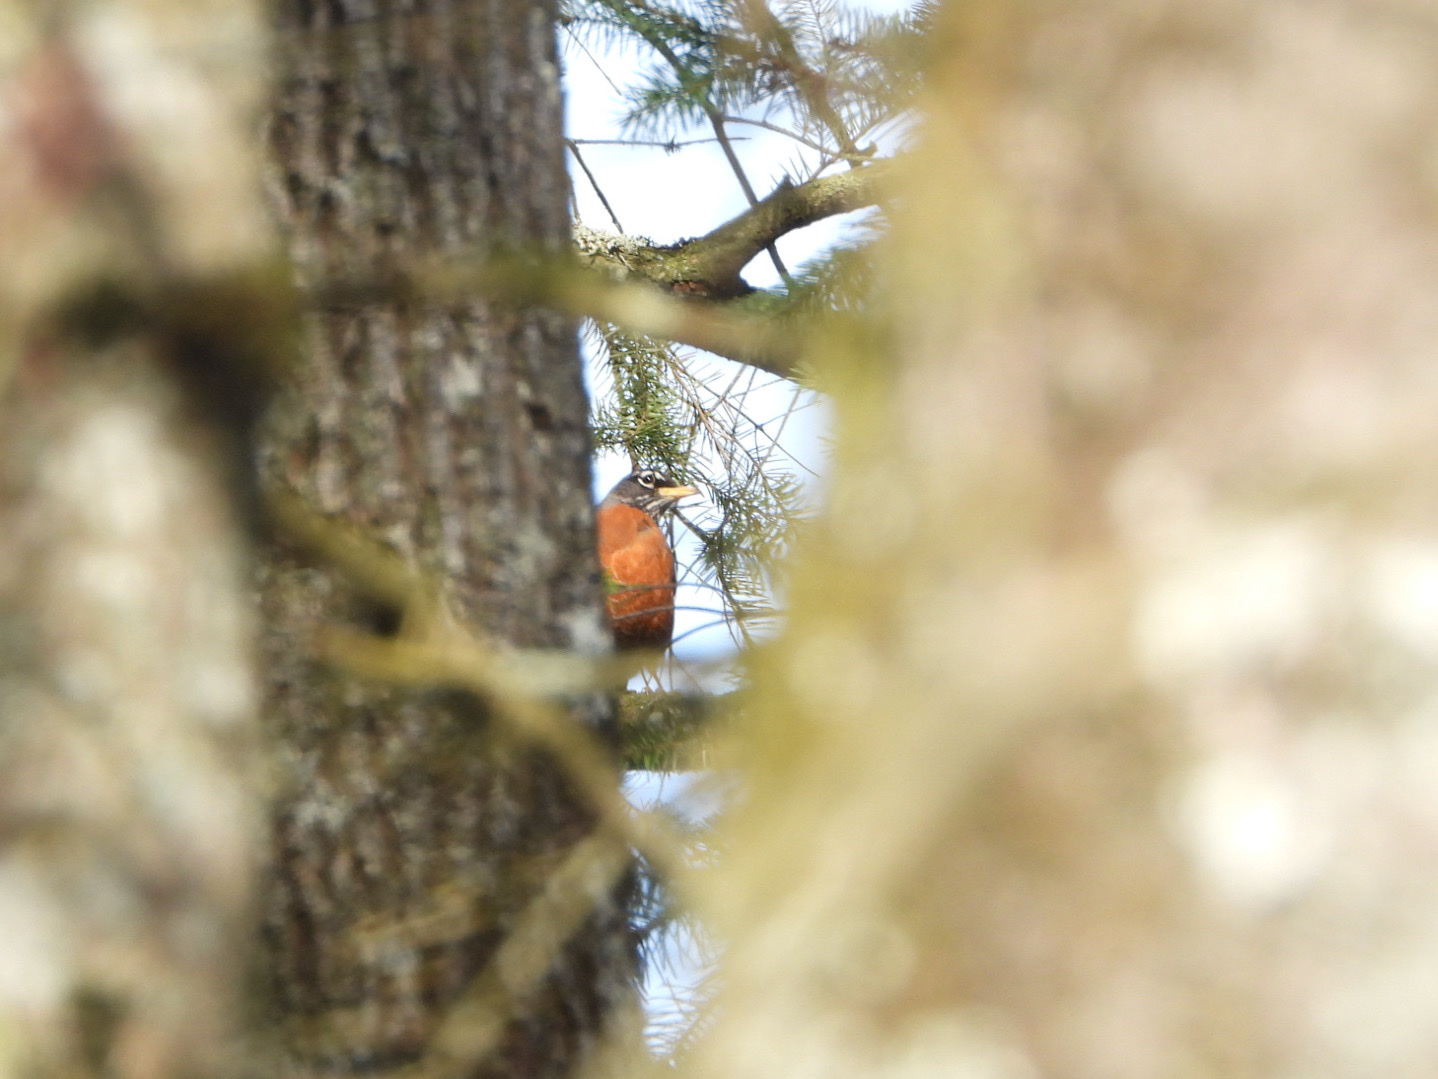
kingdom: Animalia
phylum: Chordata
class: Aves
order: Passeriformes
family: Turdidae
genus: Turdus
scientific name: Turdus migratorius
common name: American robin
